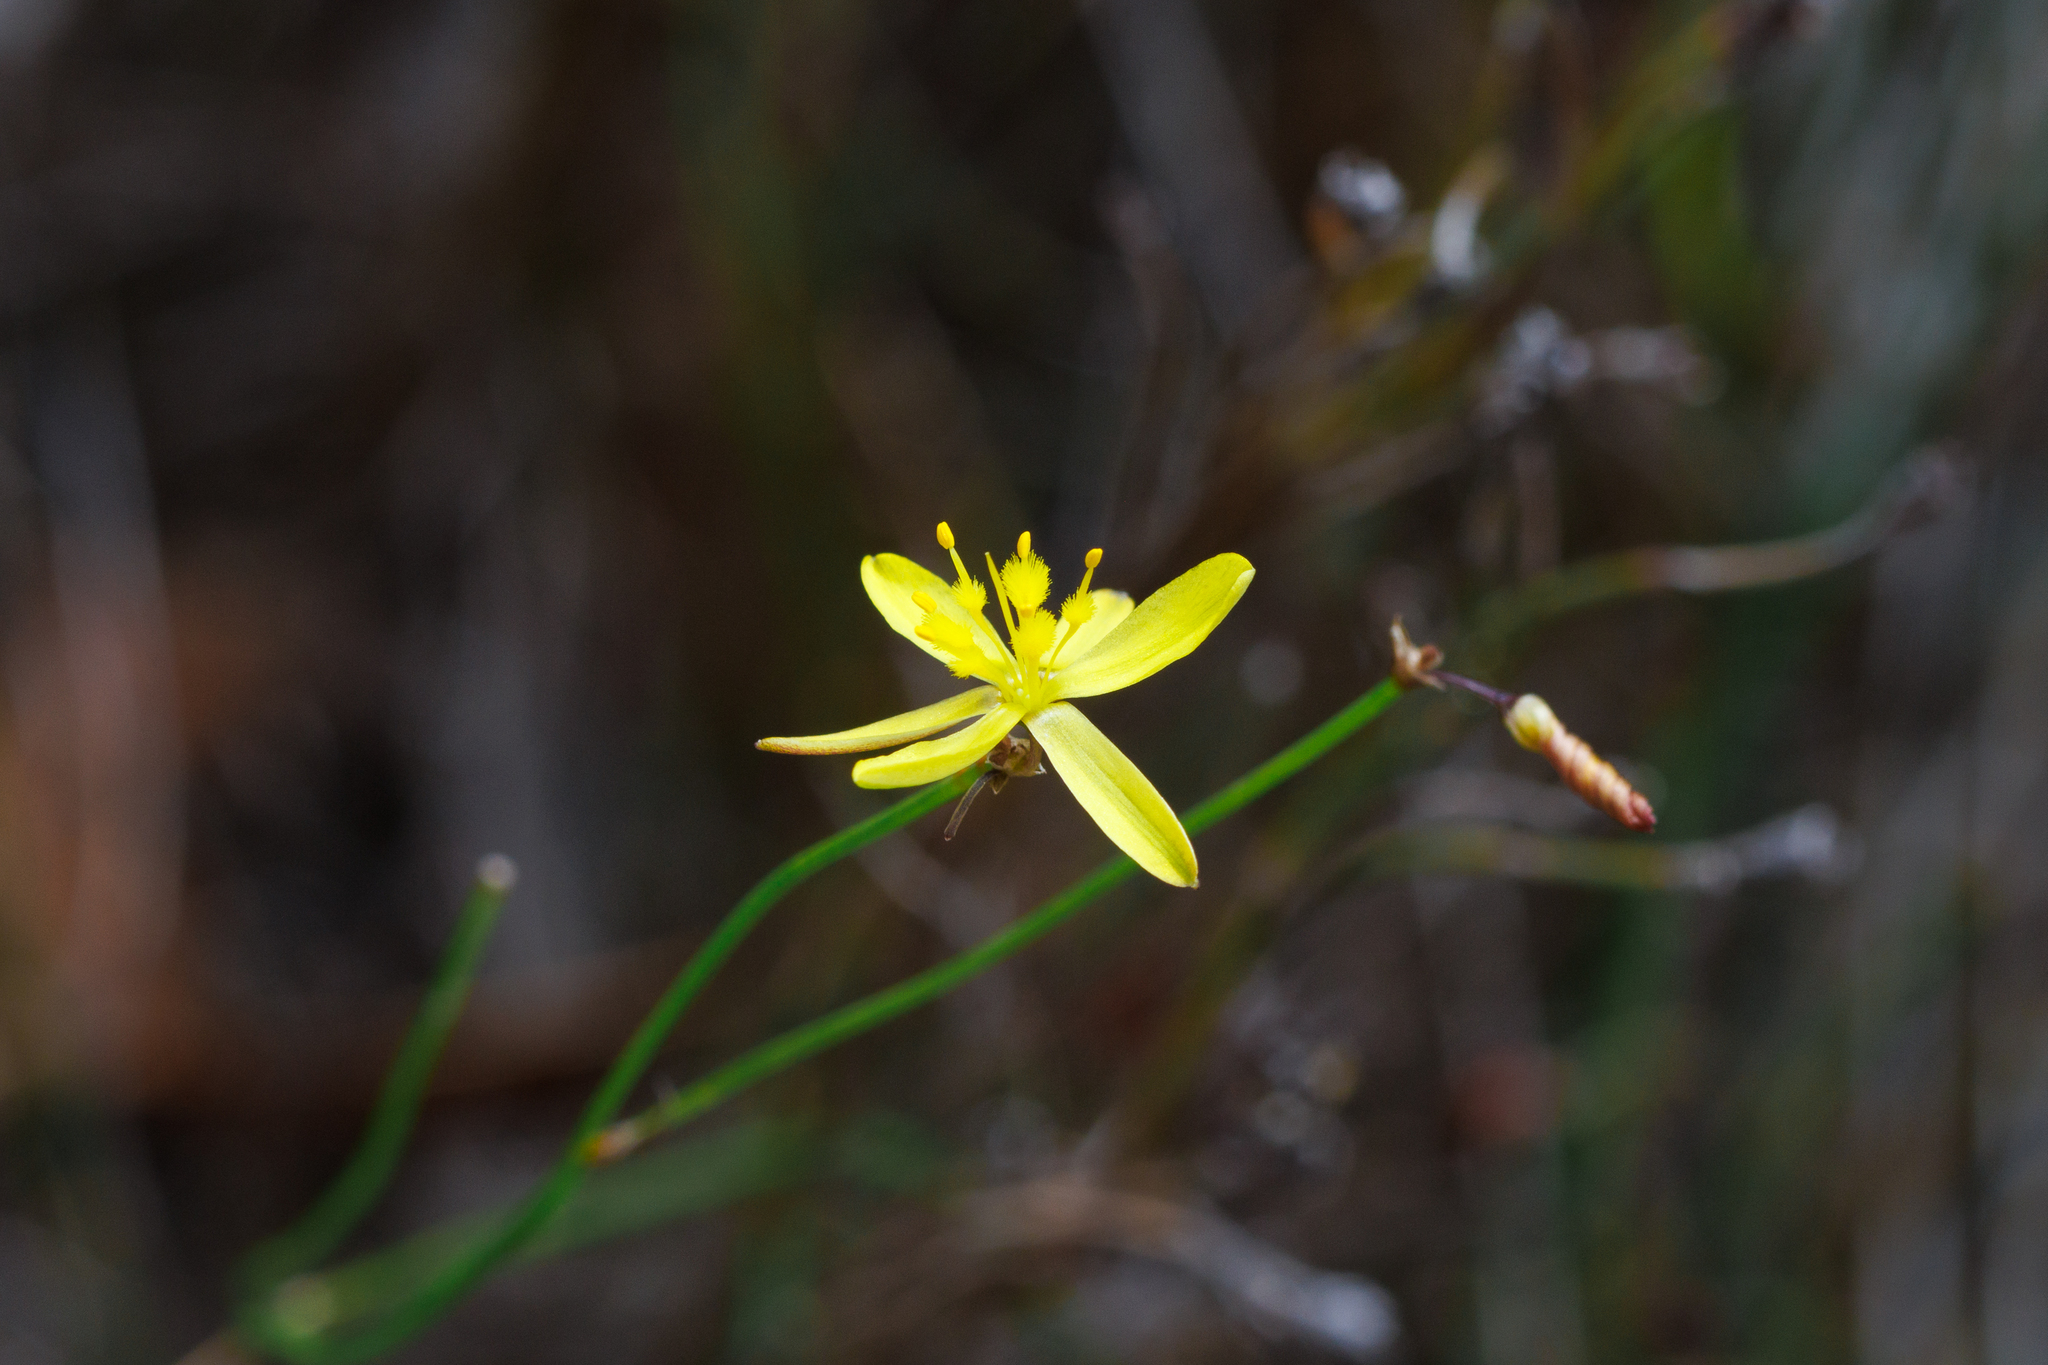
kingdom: Plantae
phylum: Tracheophyta
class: Liliopsida
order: Asparagales
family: Asphodelaceae
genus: Tricoryne
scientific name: Tricoryne elatior
